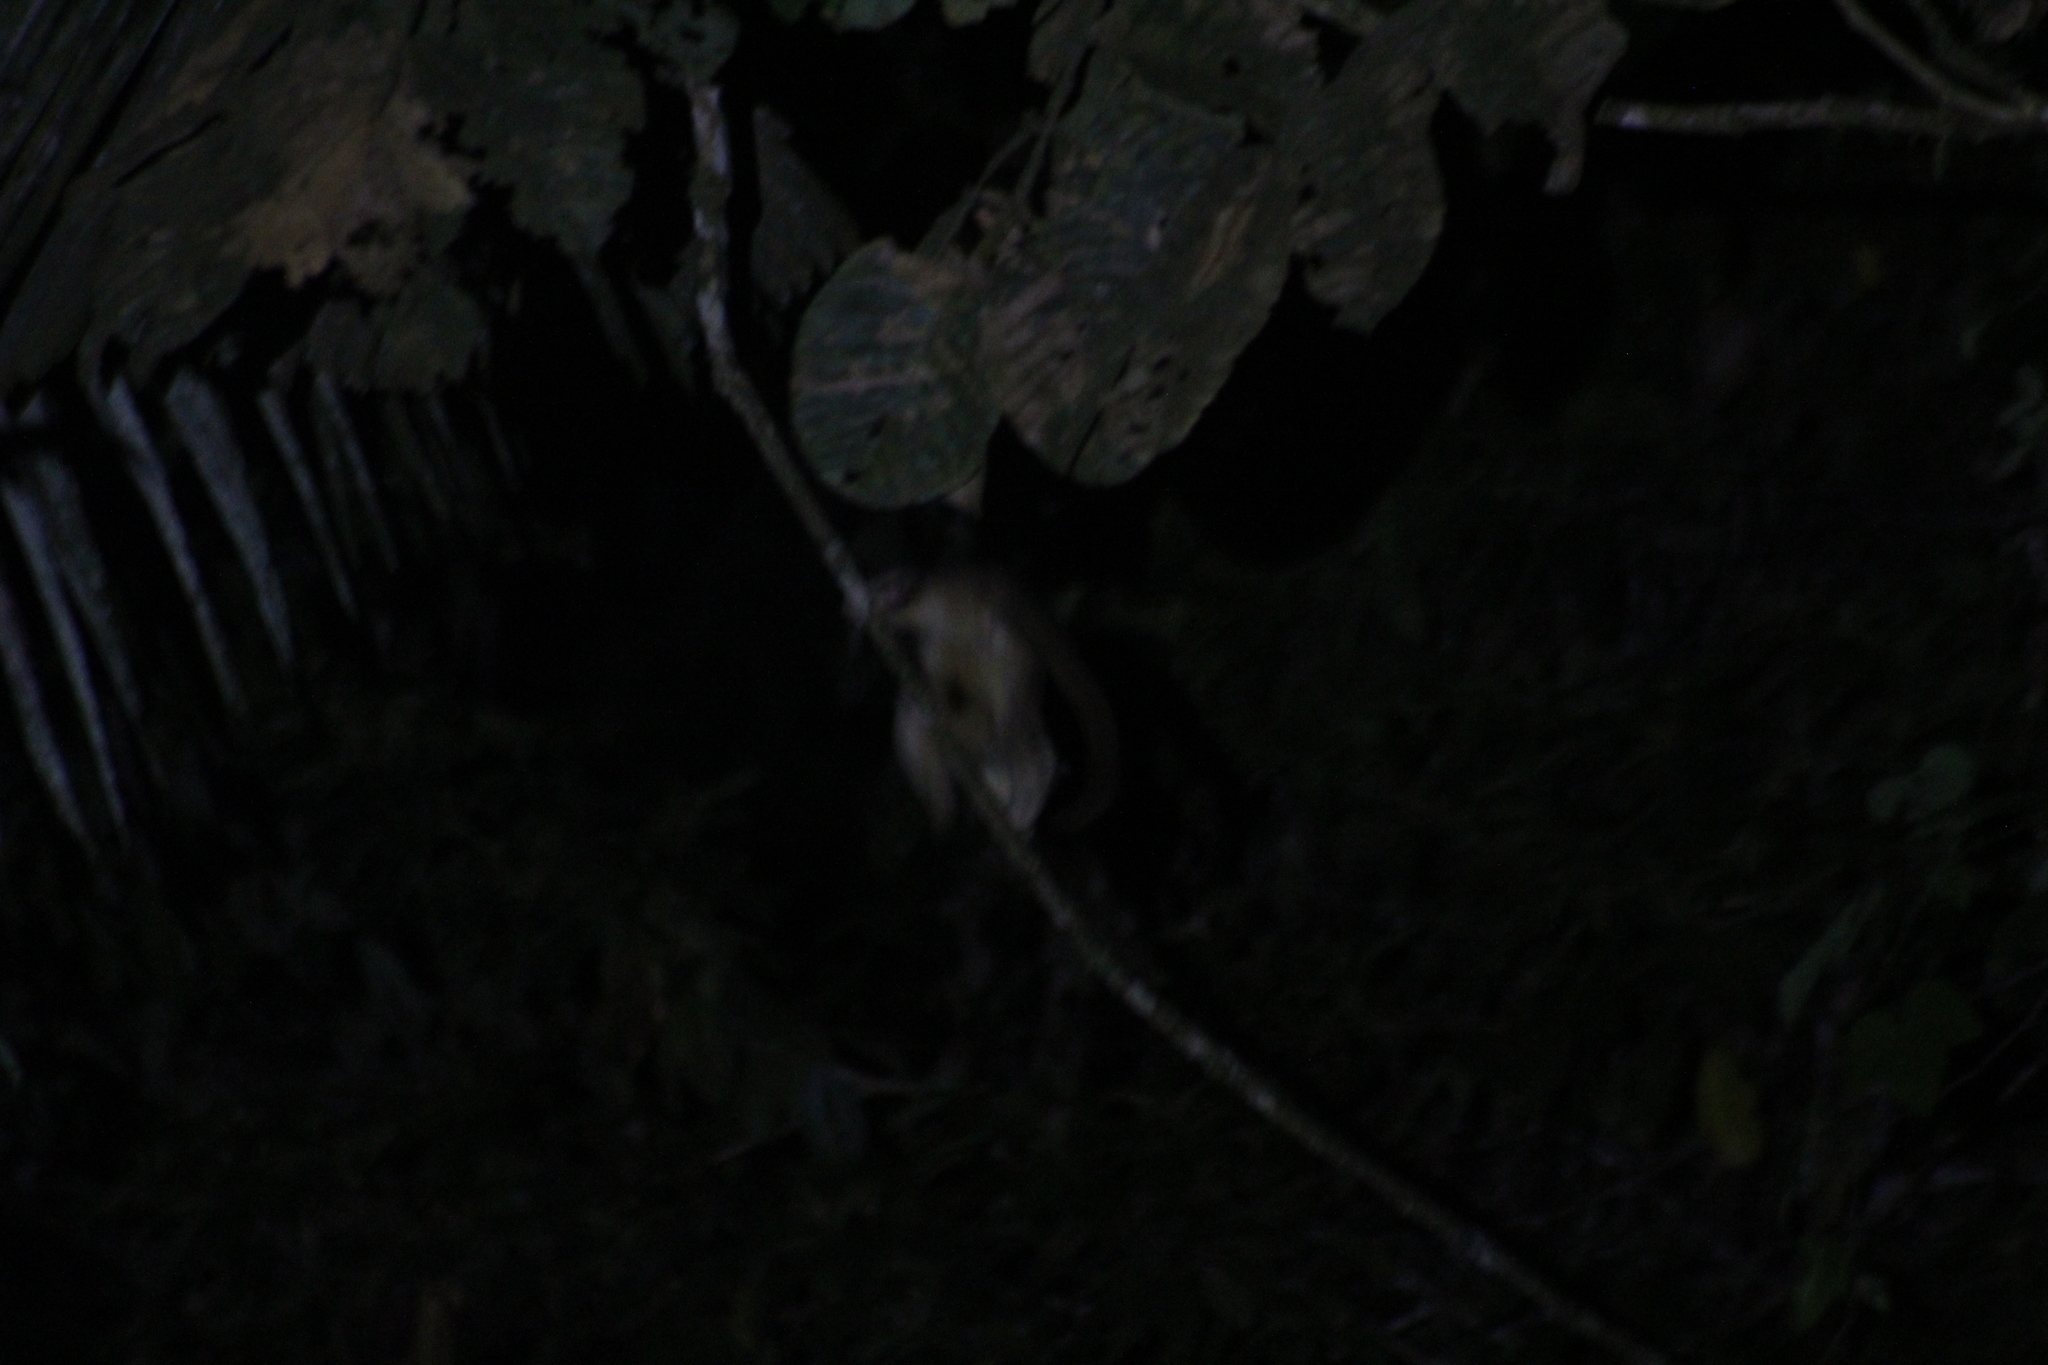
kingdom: Animalia
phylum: Chordata
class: Mammalia
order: Carnivora
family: Procyonidae
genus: Potos
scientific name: Potos flavus
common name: Kinkajou
